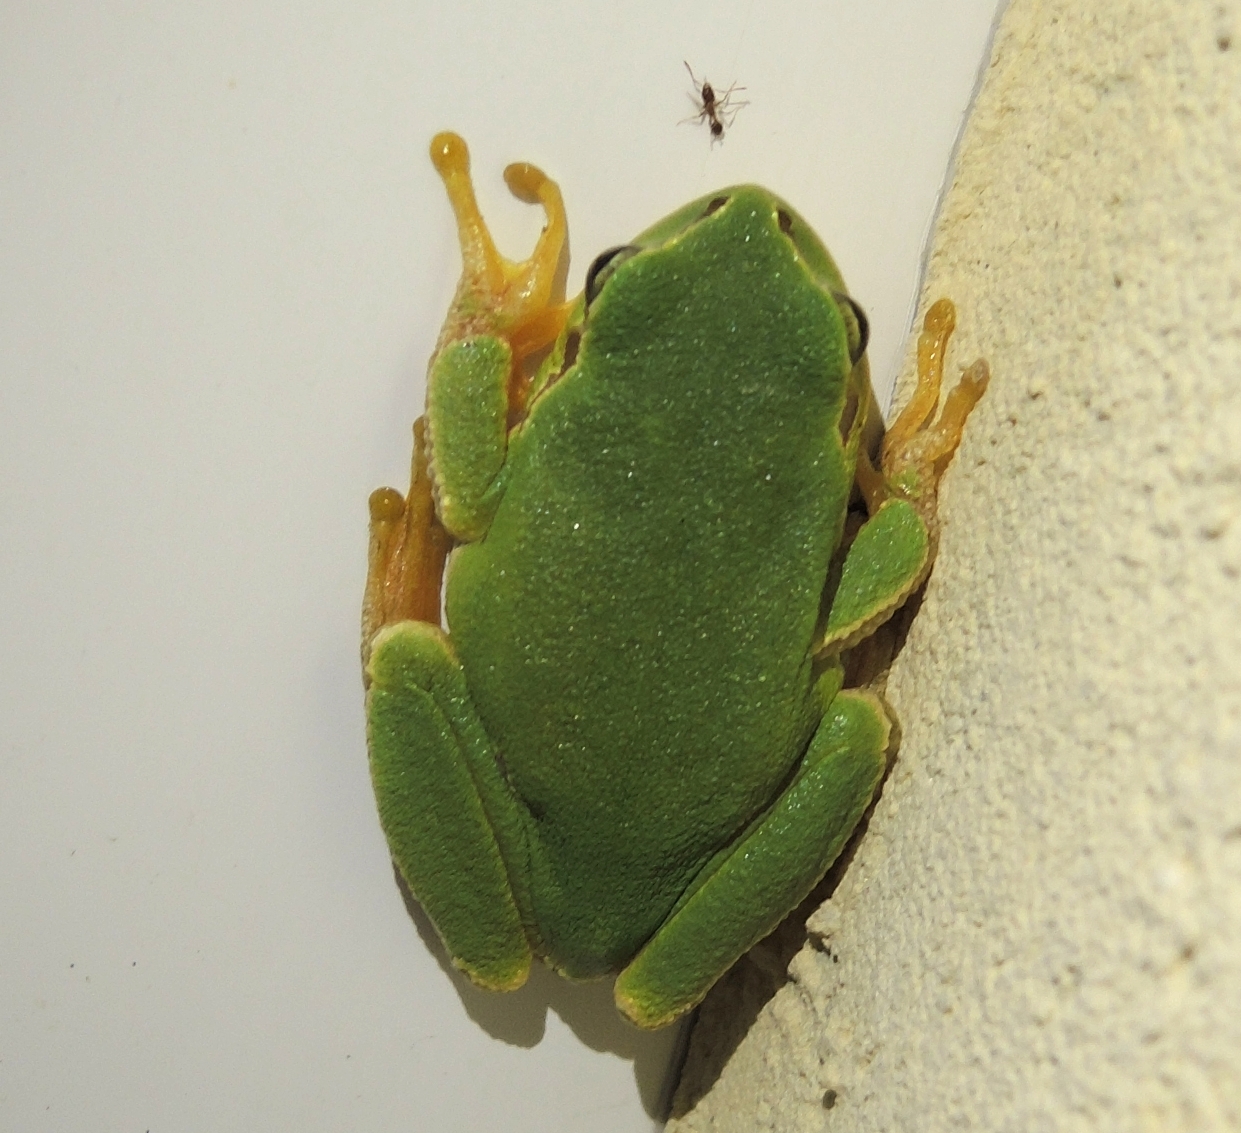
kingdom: Animalia
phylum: Chordata
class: Amphibia
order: Anura
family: Hylidae
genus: Hyla
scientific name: Hyla orientalis
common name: Caucasian treefrog
